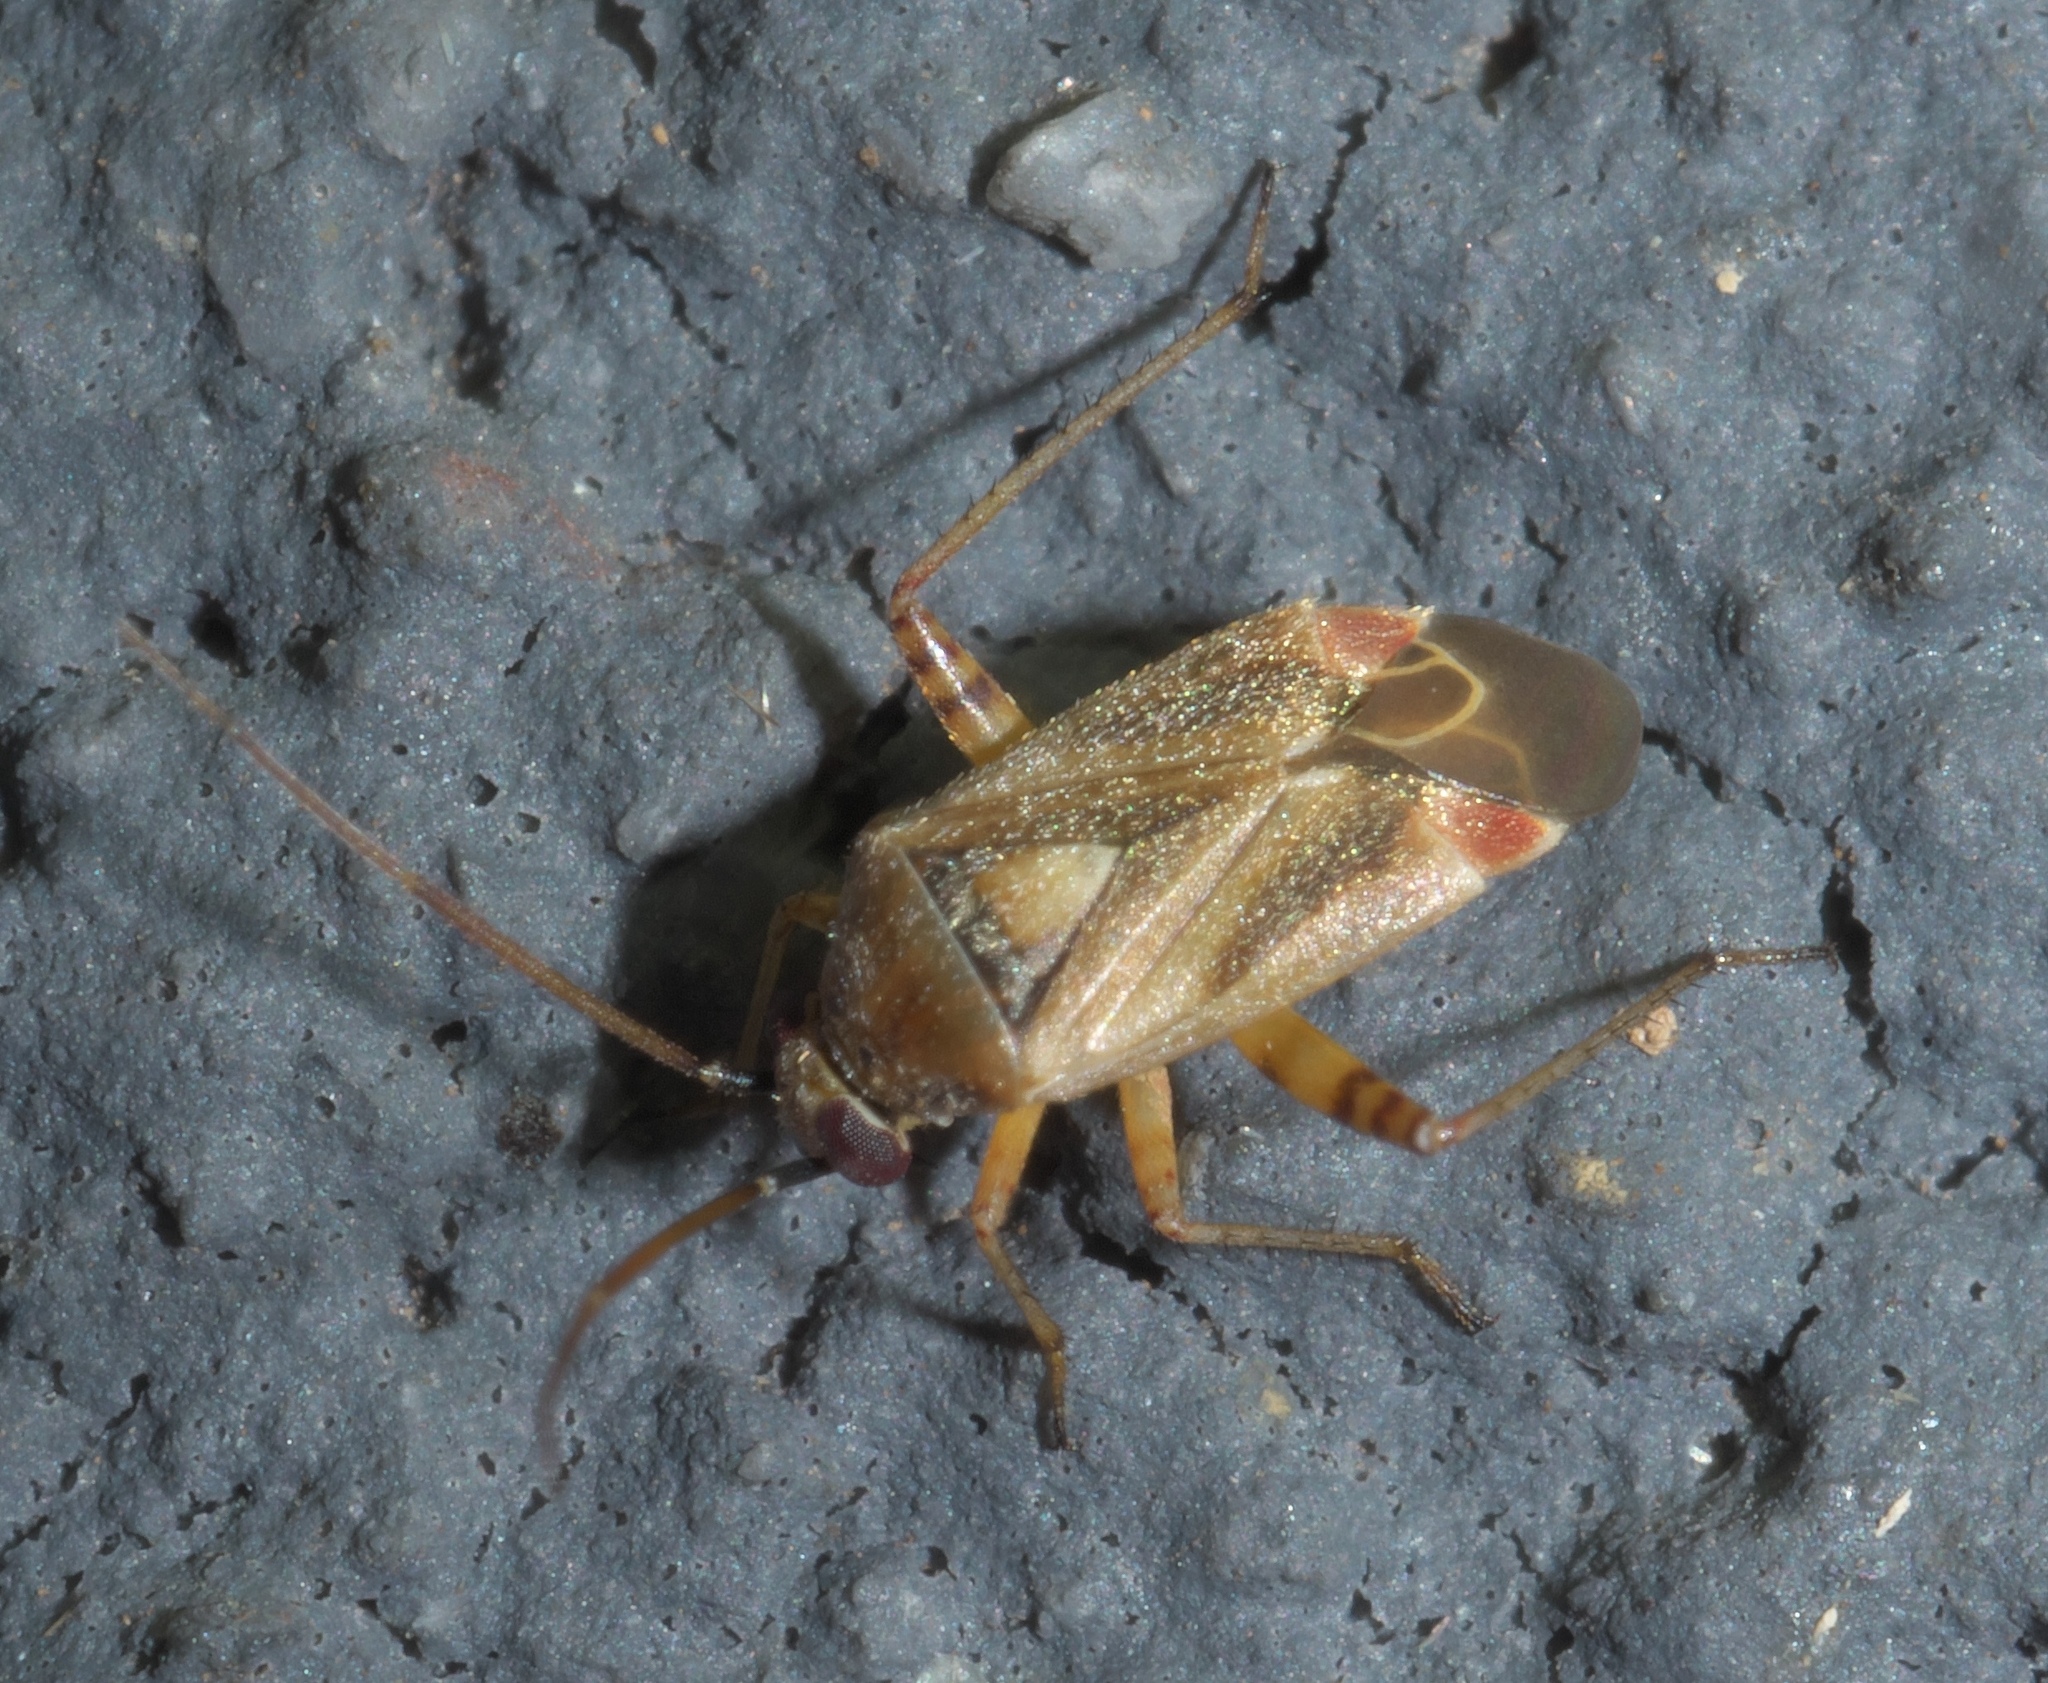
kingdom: Animalia
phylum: Arthropoda
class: Insecta
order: Hemiptera
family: Miridae
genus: Polymerus
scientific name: Polymerus basalis
